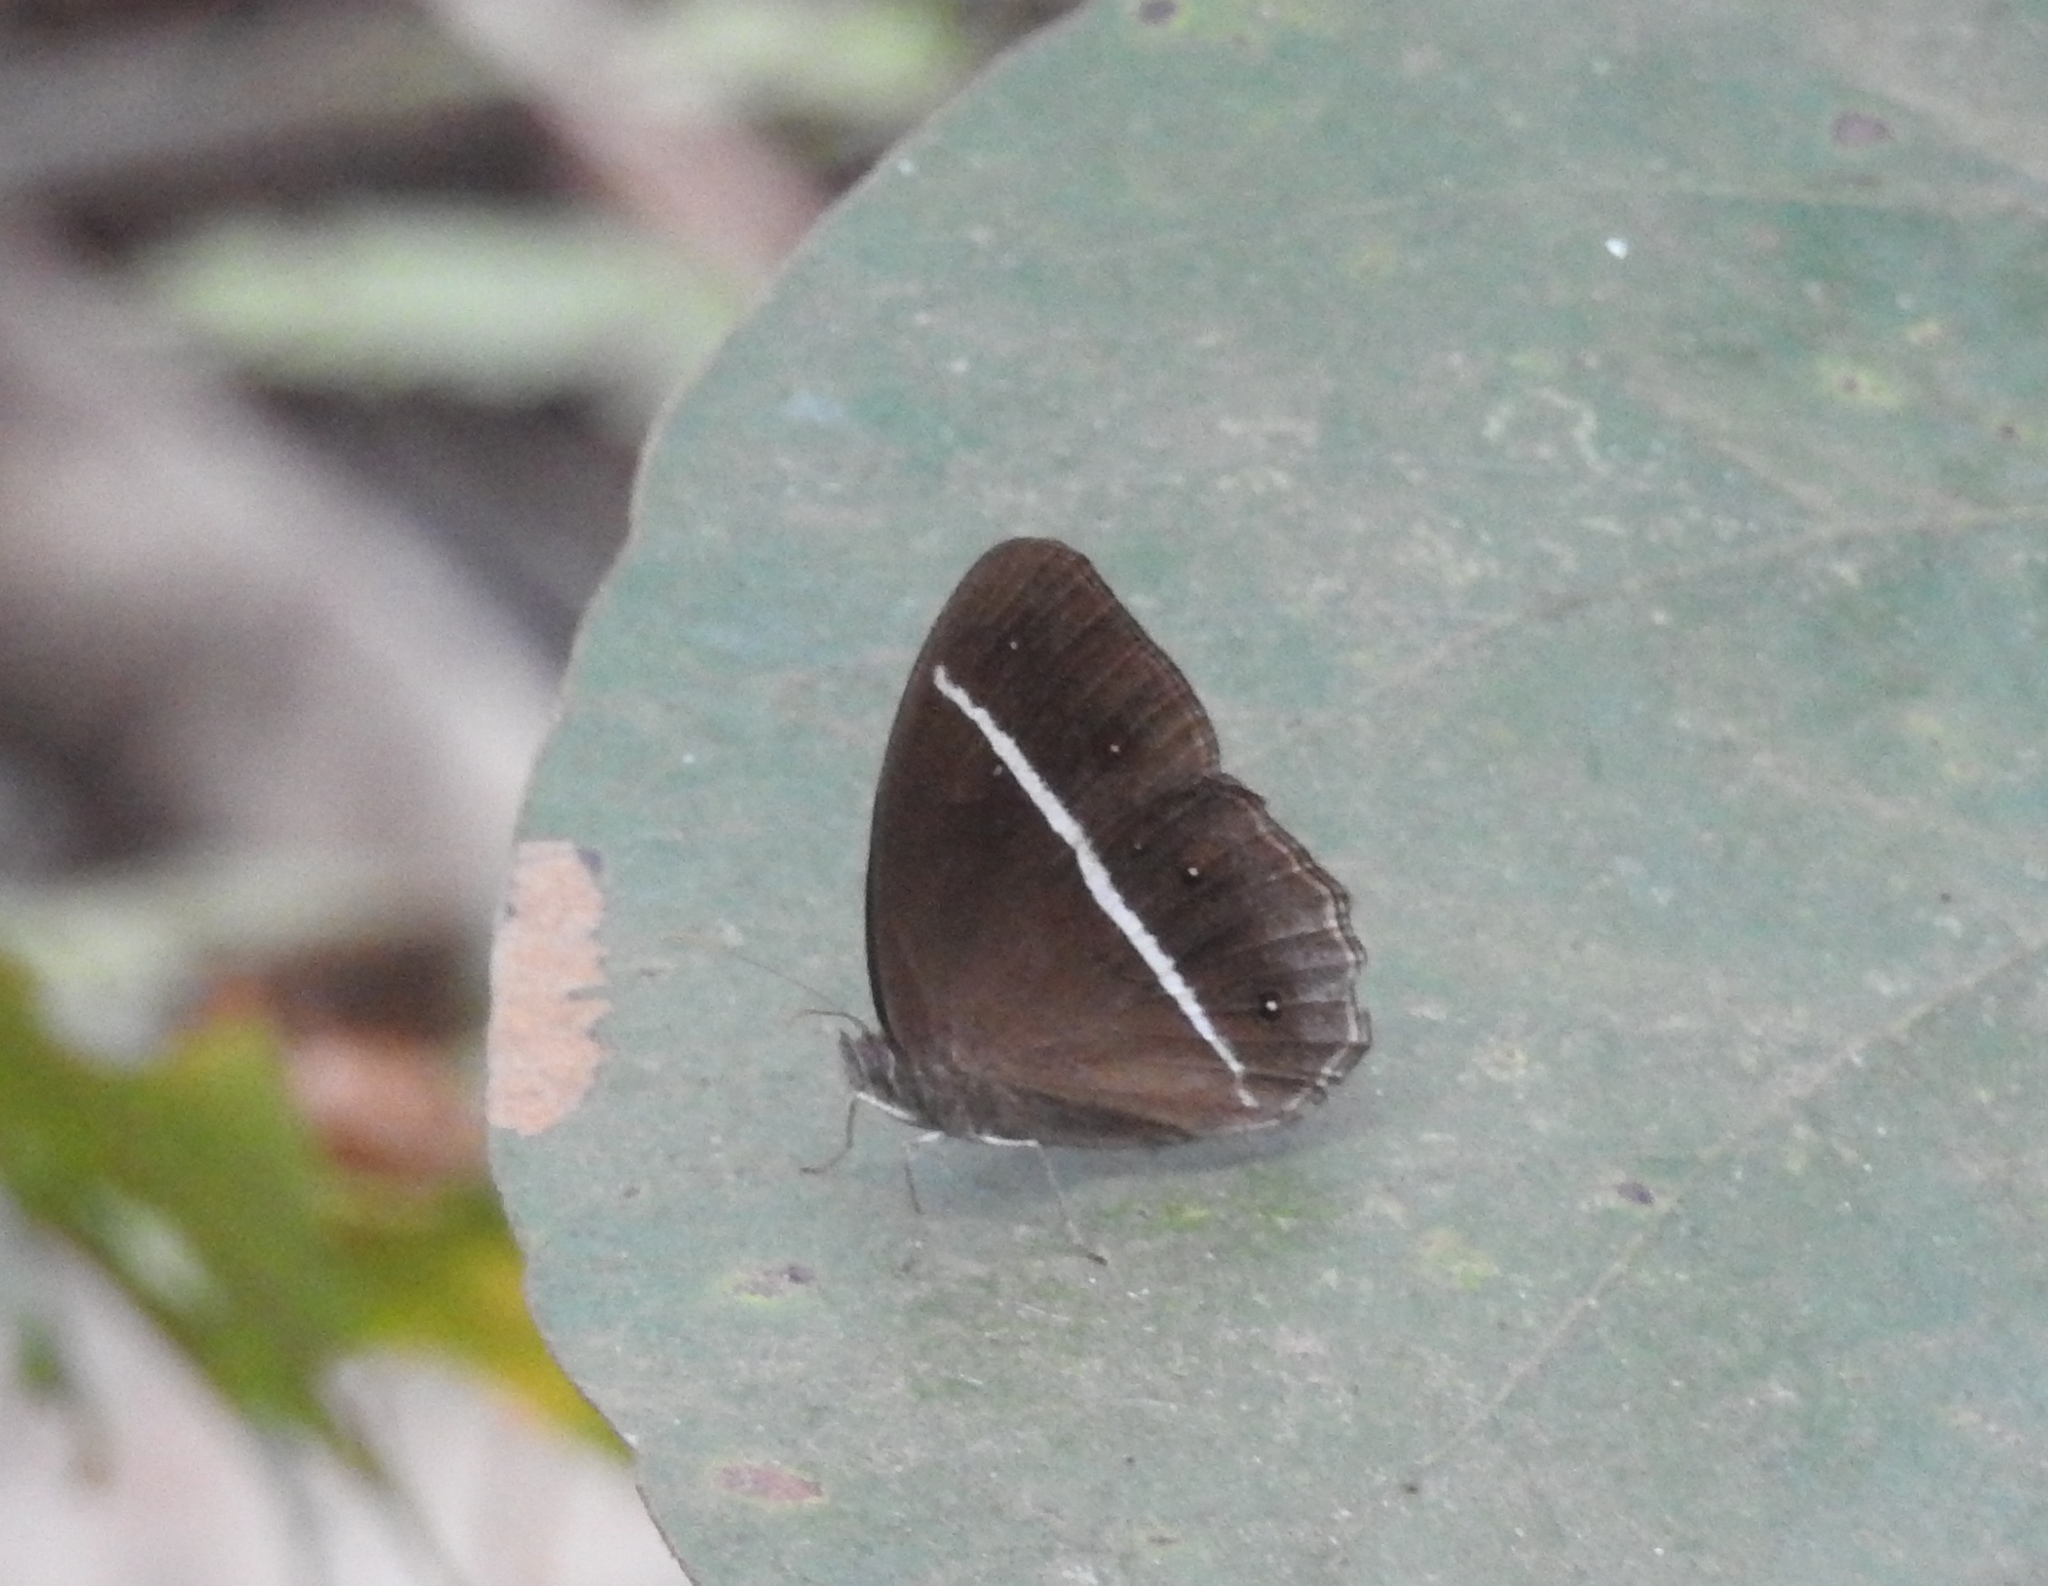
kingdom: Animalia
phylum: Arthropoda
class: Insecta
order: Lepidoptera
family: Nymphalidae
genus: Orsotriaena
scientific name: Orsotriaena medus
